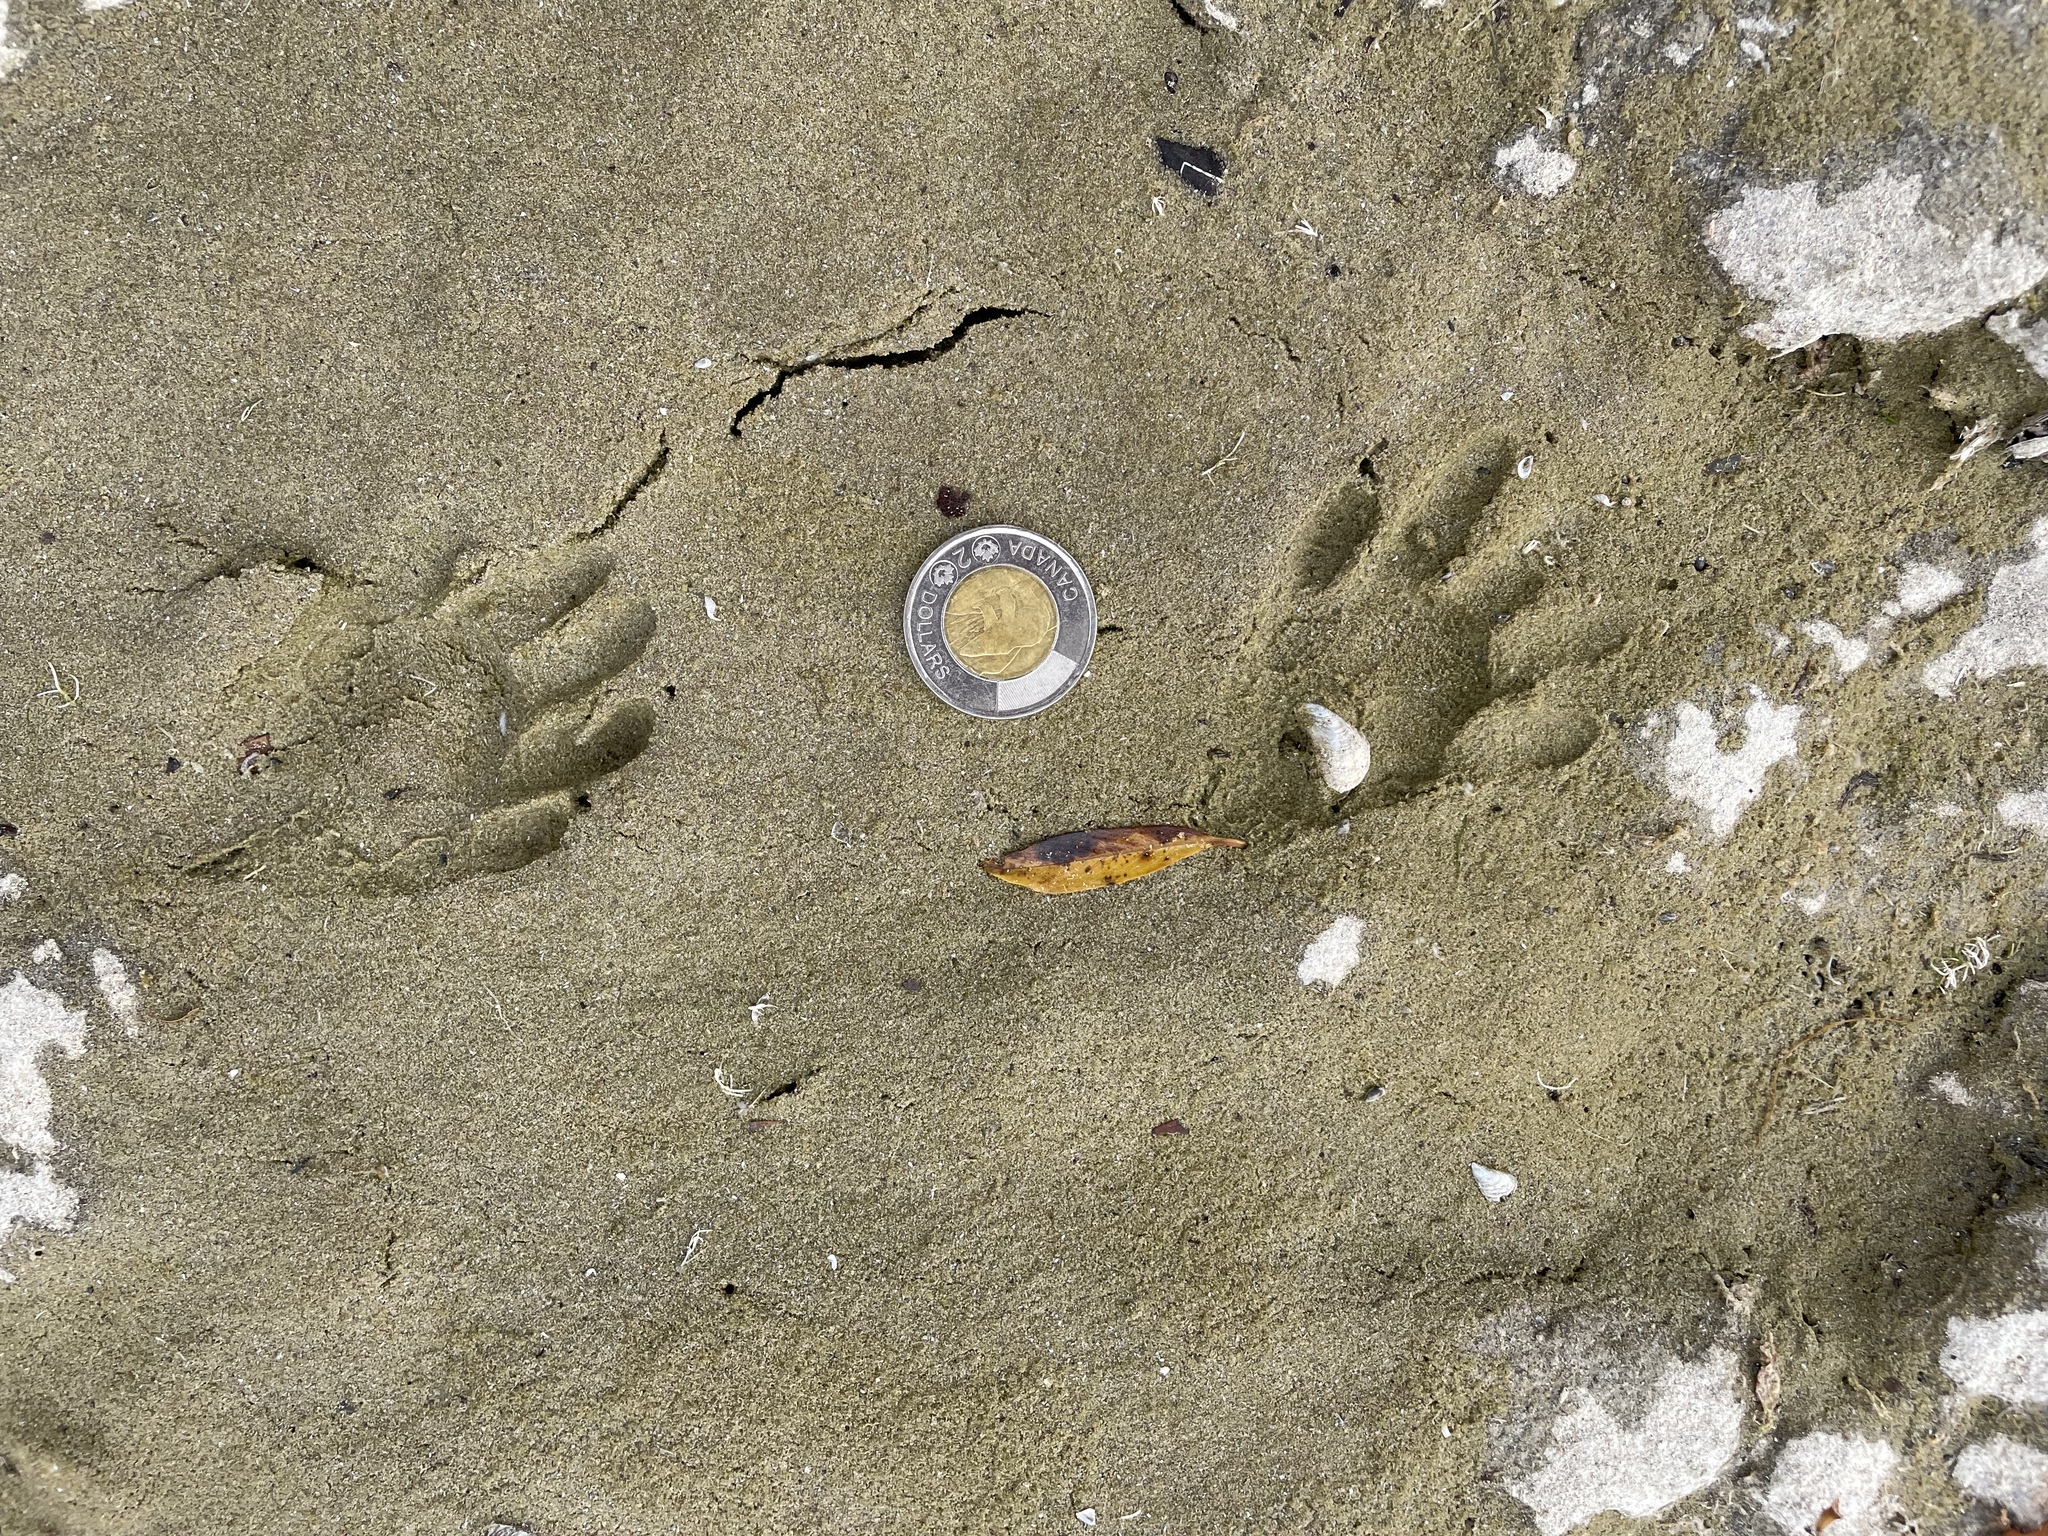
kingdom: Animalia
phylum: Chordata
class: Mammalia
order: Carnivora
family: Procyonidae
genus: Procyon
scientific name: Procyon lotor
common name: Raccoon
